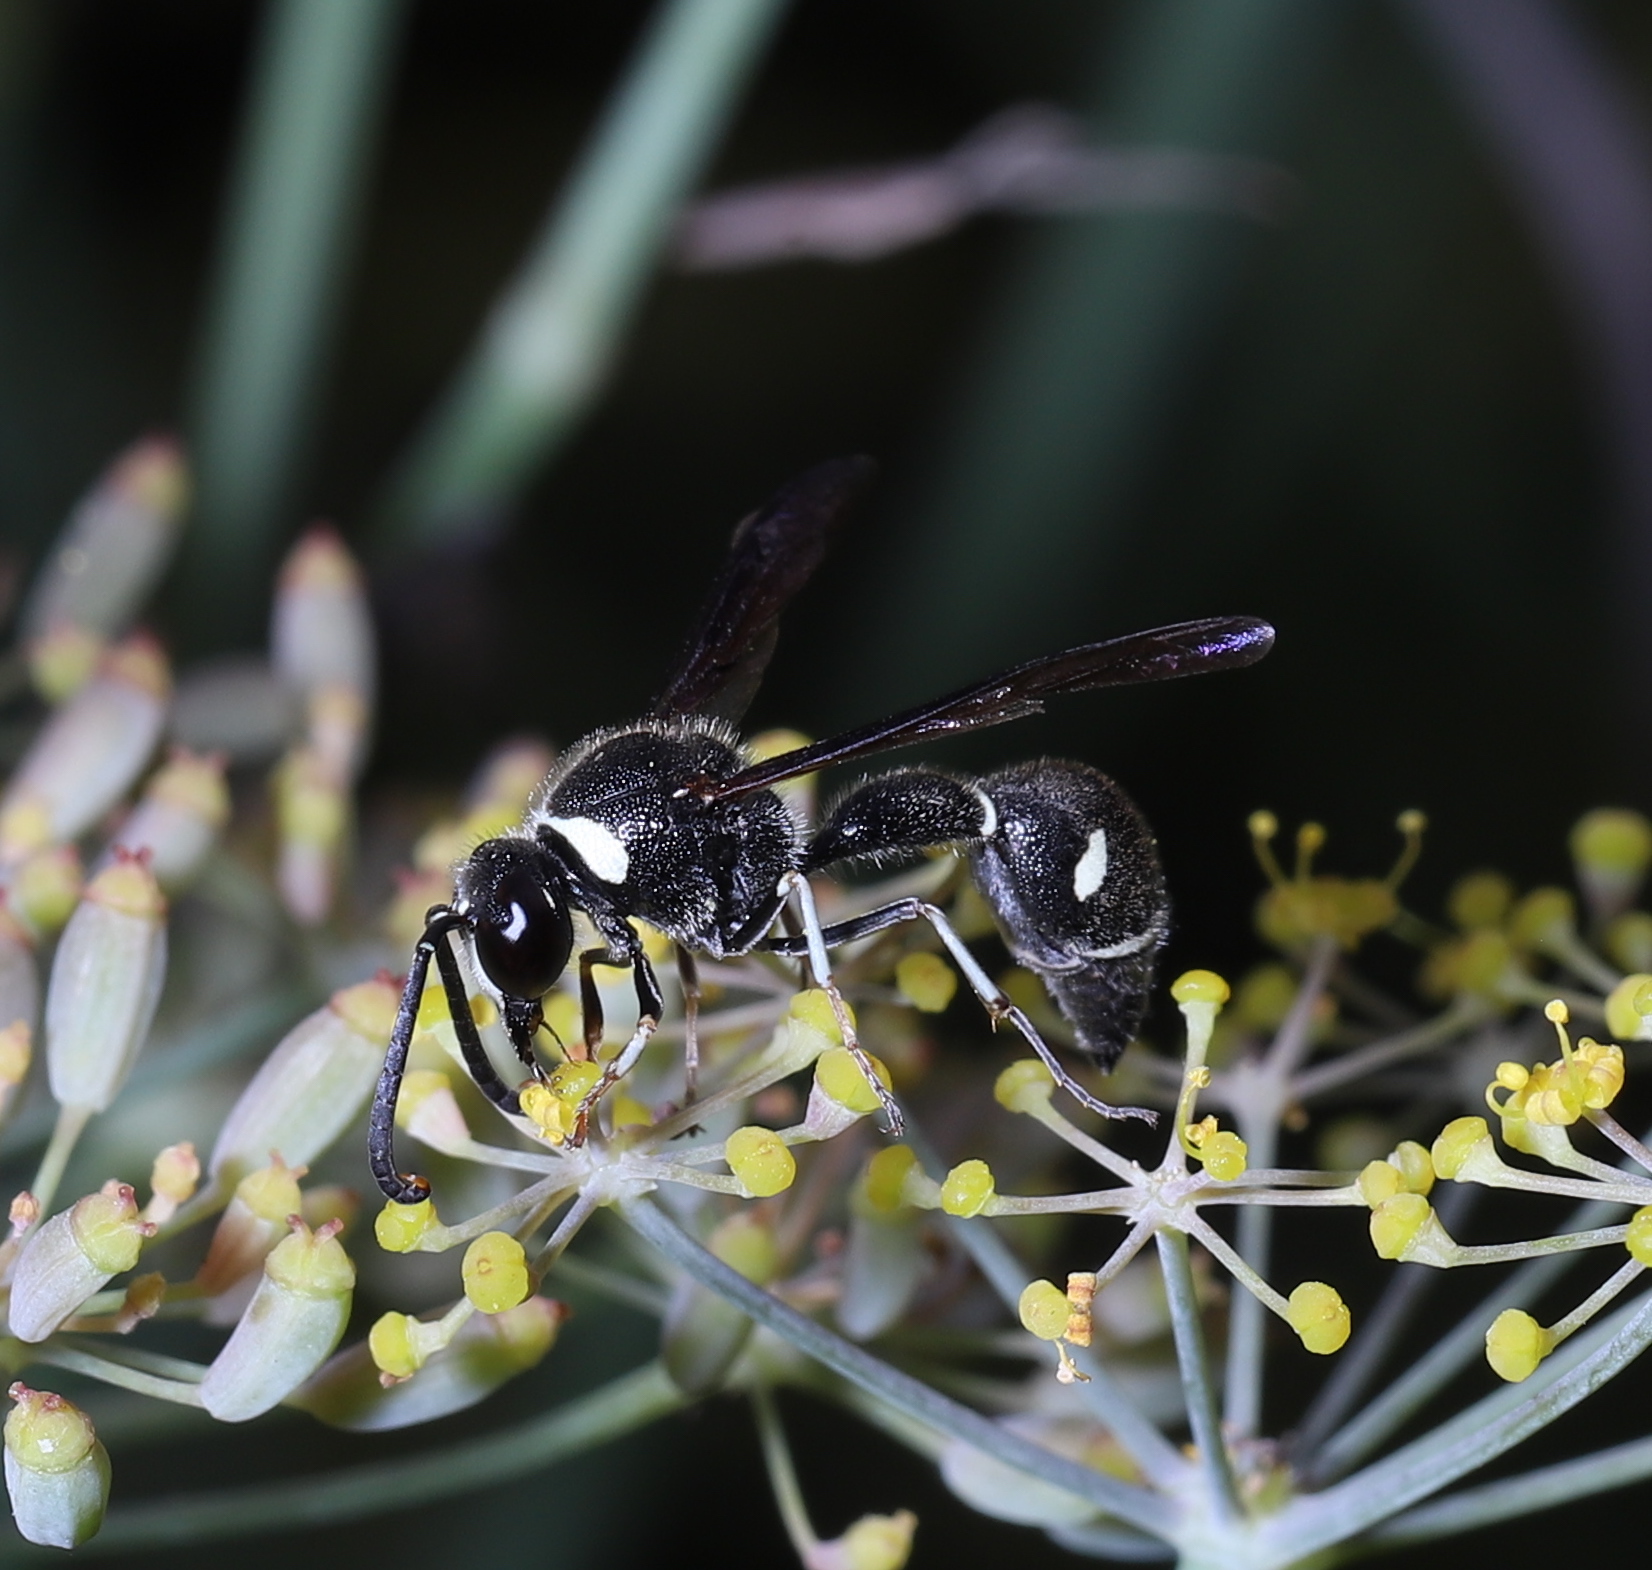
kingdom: Animalia
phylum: Arthropoda
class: Insecta
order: Hymenoptera
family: Vespidae
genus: Eumenes
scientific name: Eumenes fraternus
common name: Fraternal potter wasp
